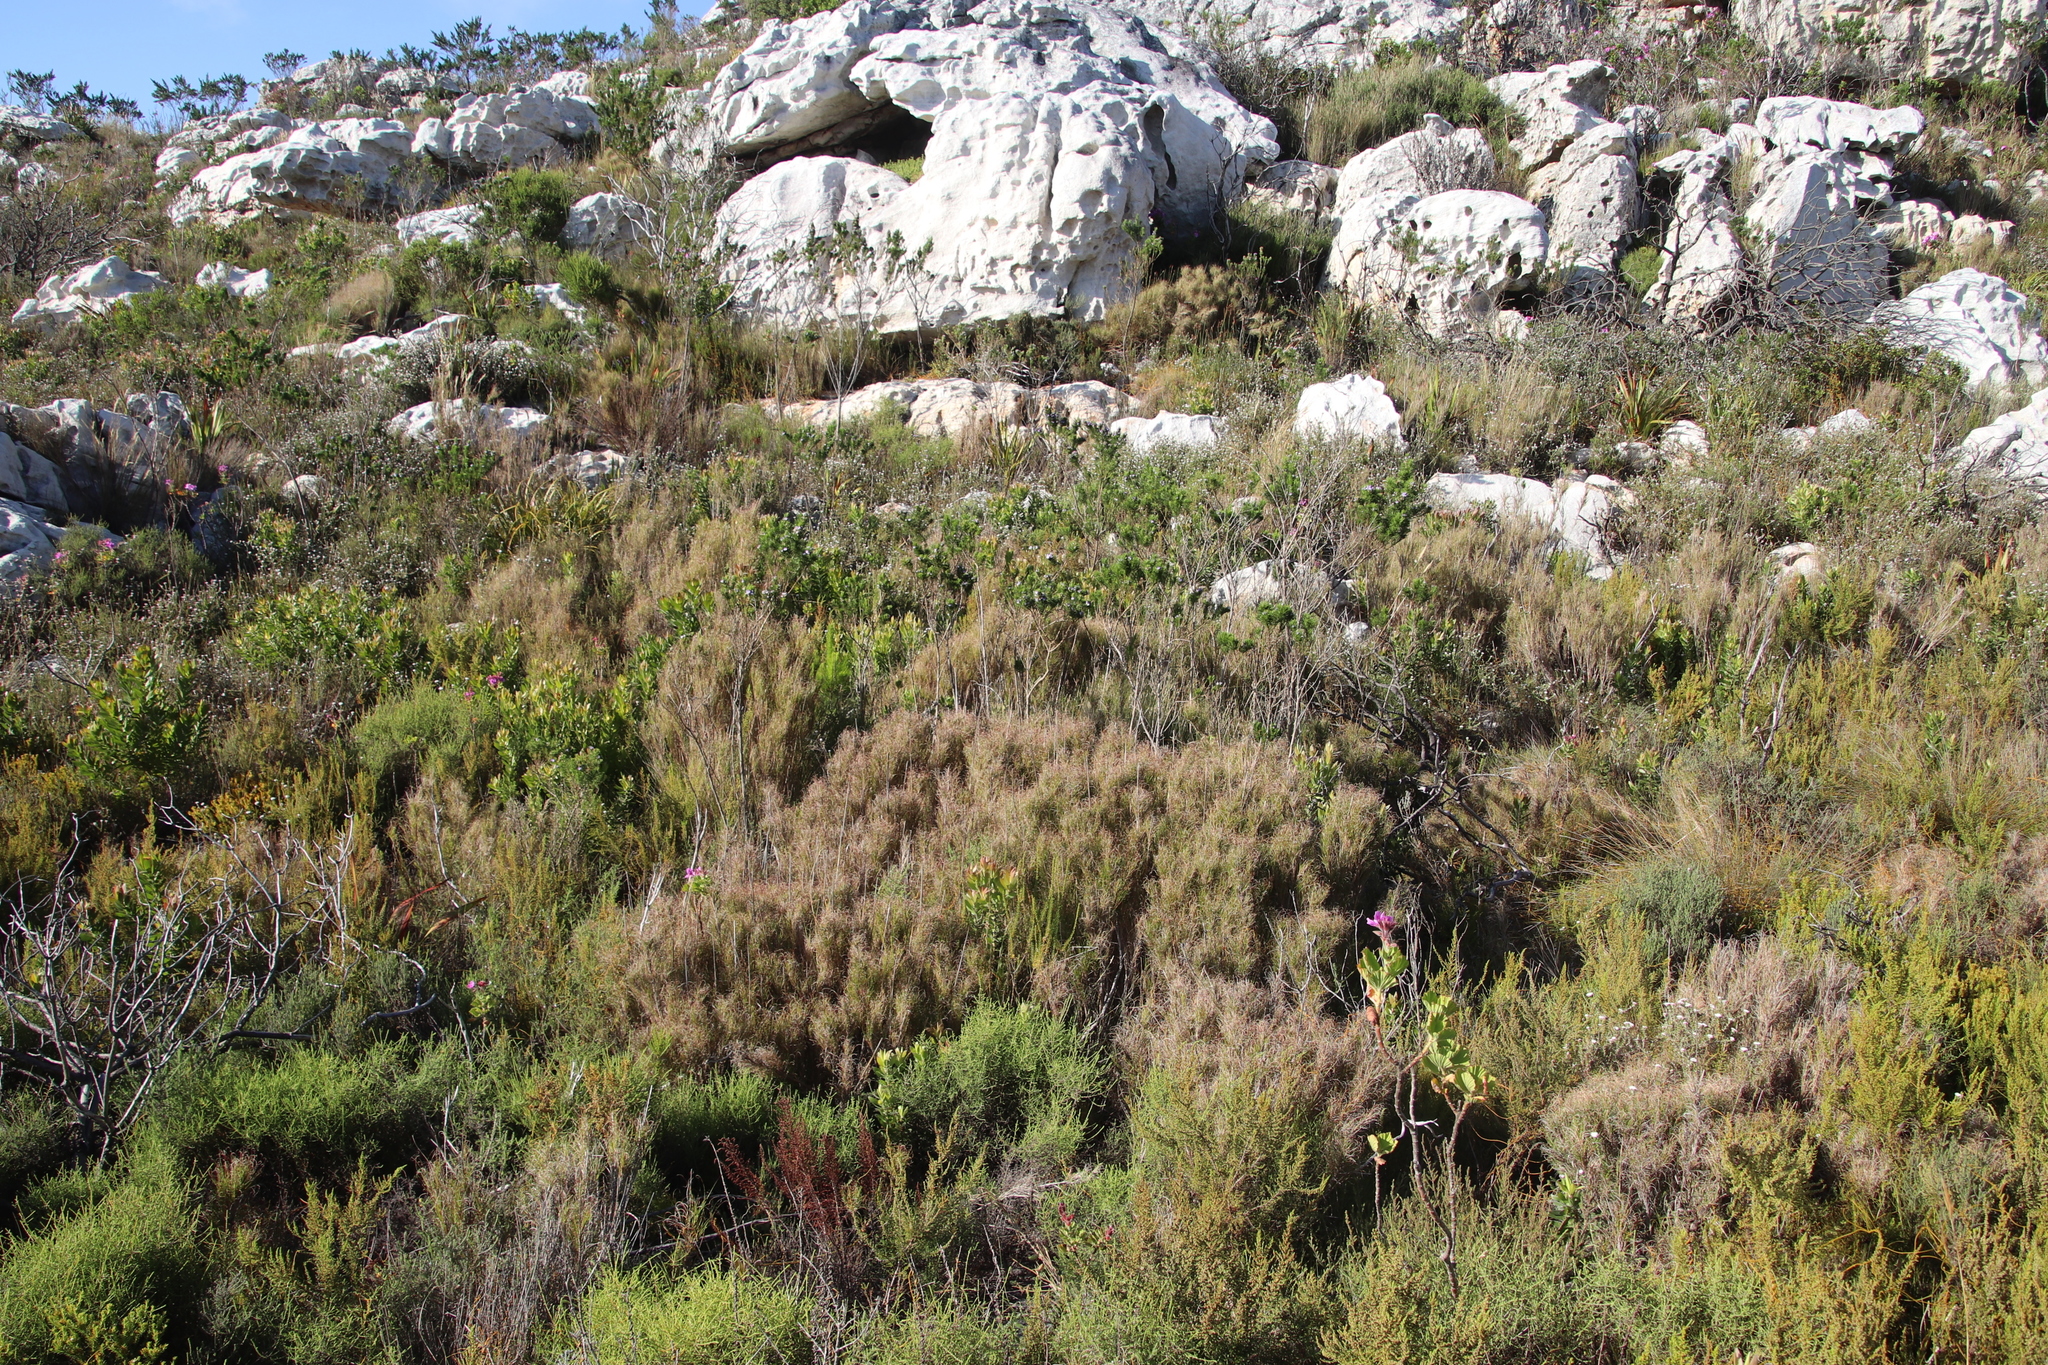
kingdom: Plantae
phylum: Tracheophyta
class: Liliopsida
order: Poales
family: Poaceae
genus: Pseudopentameris
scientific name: Pseudopentameris macrantha
